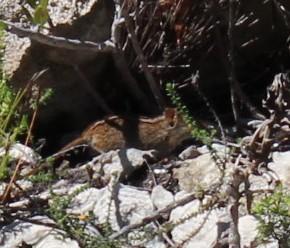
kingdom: Animalia
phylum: Chordata
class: Mammalia
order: Rodentia
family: Muridae
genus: Rhabdomys
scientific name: Rhabdomys pumilio
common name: Xeric four-striped grass rat
